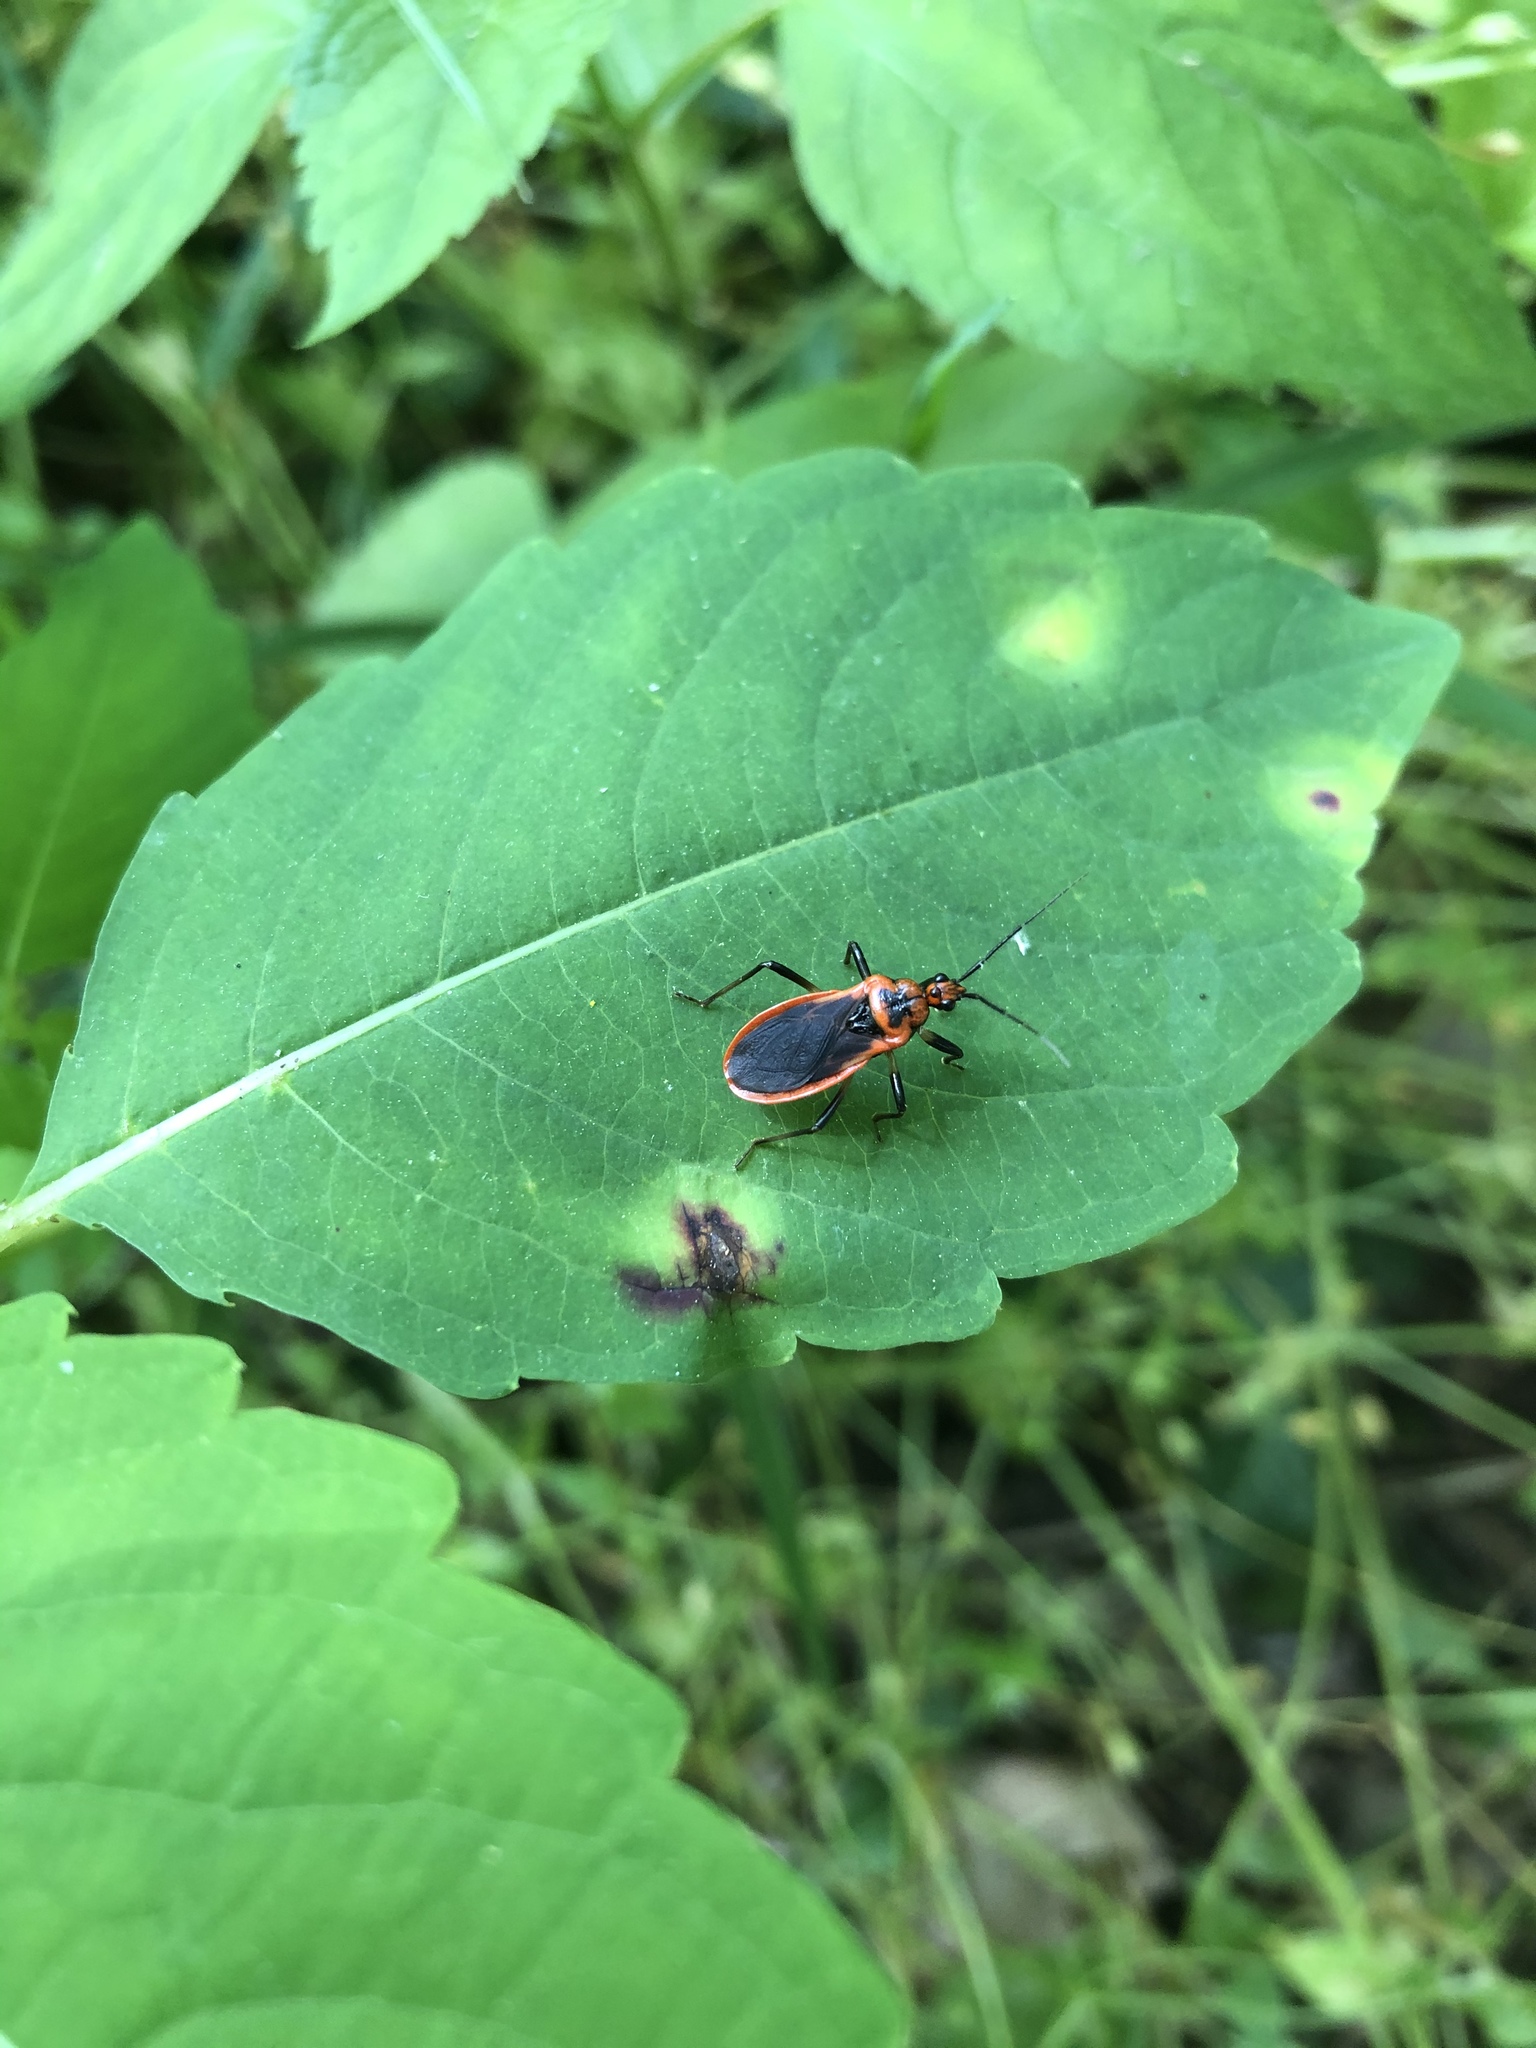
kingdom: Animalia
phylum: Arthropoda
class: Insecta
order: Hemiptera
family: Reduviidae
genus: Rhiginia
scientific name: Rhiginia cruciata
